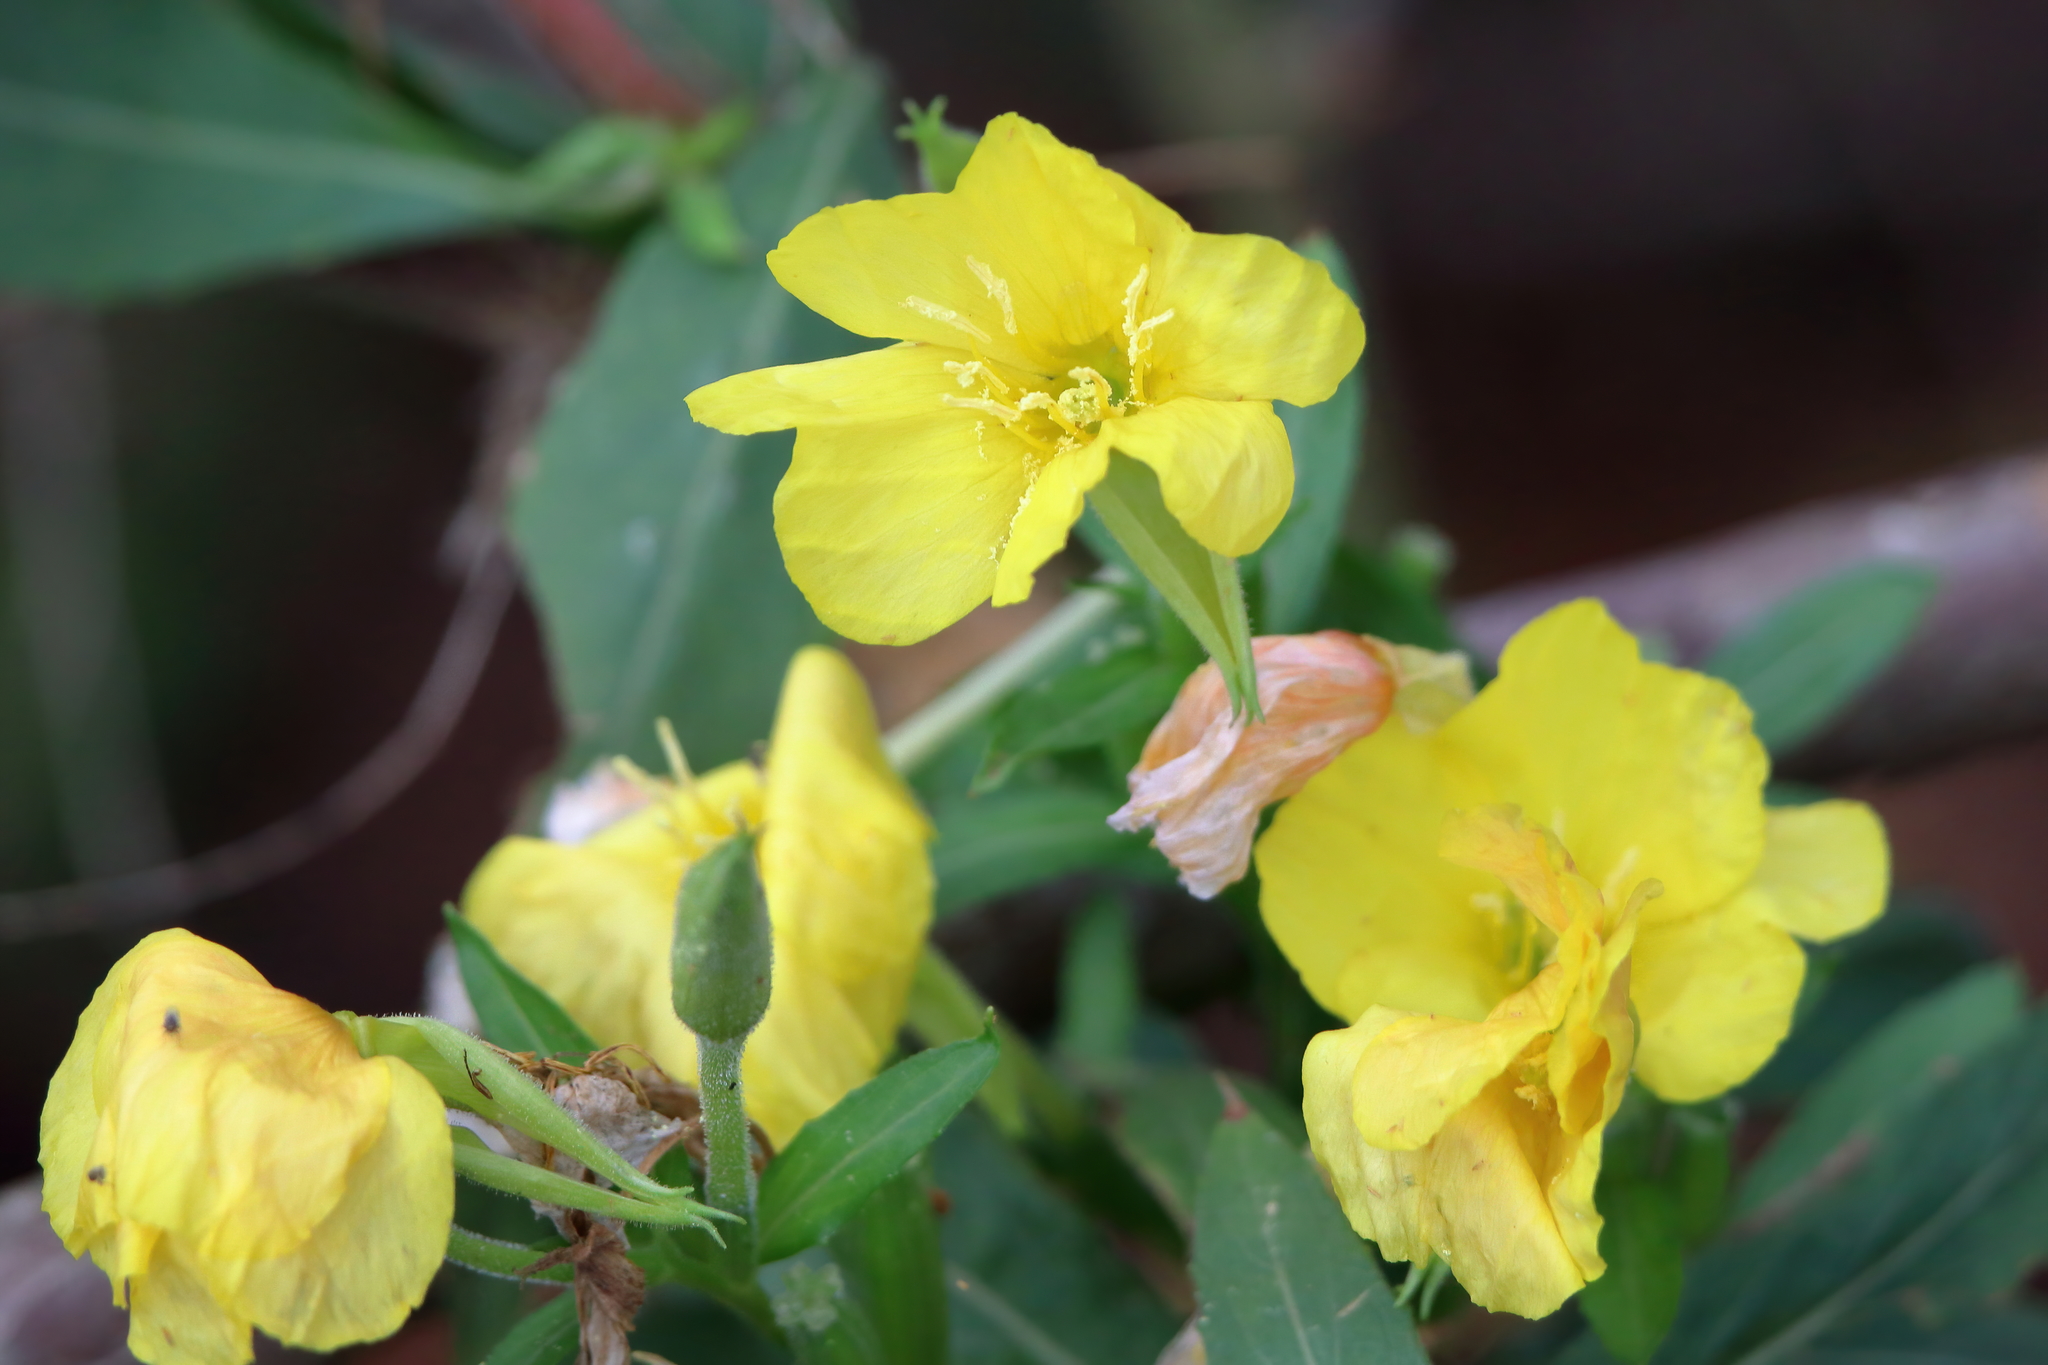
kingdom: Plantae
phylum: Tracheophyta
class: Magnoliopsida
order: Myrtales
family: Onagraceae
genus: Oenothera
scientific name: Oenothera biennis
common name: Common evening-primrose
